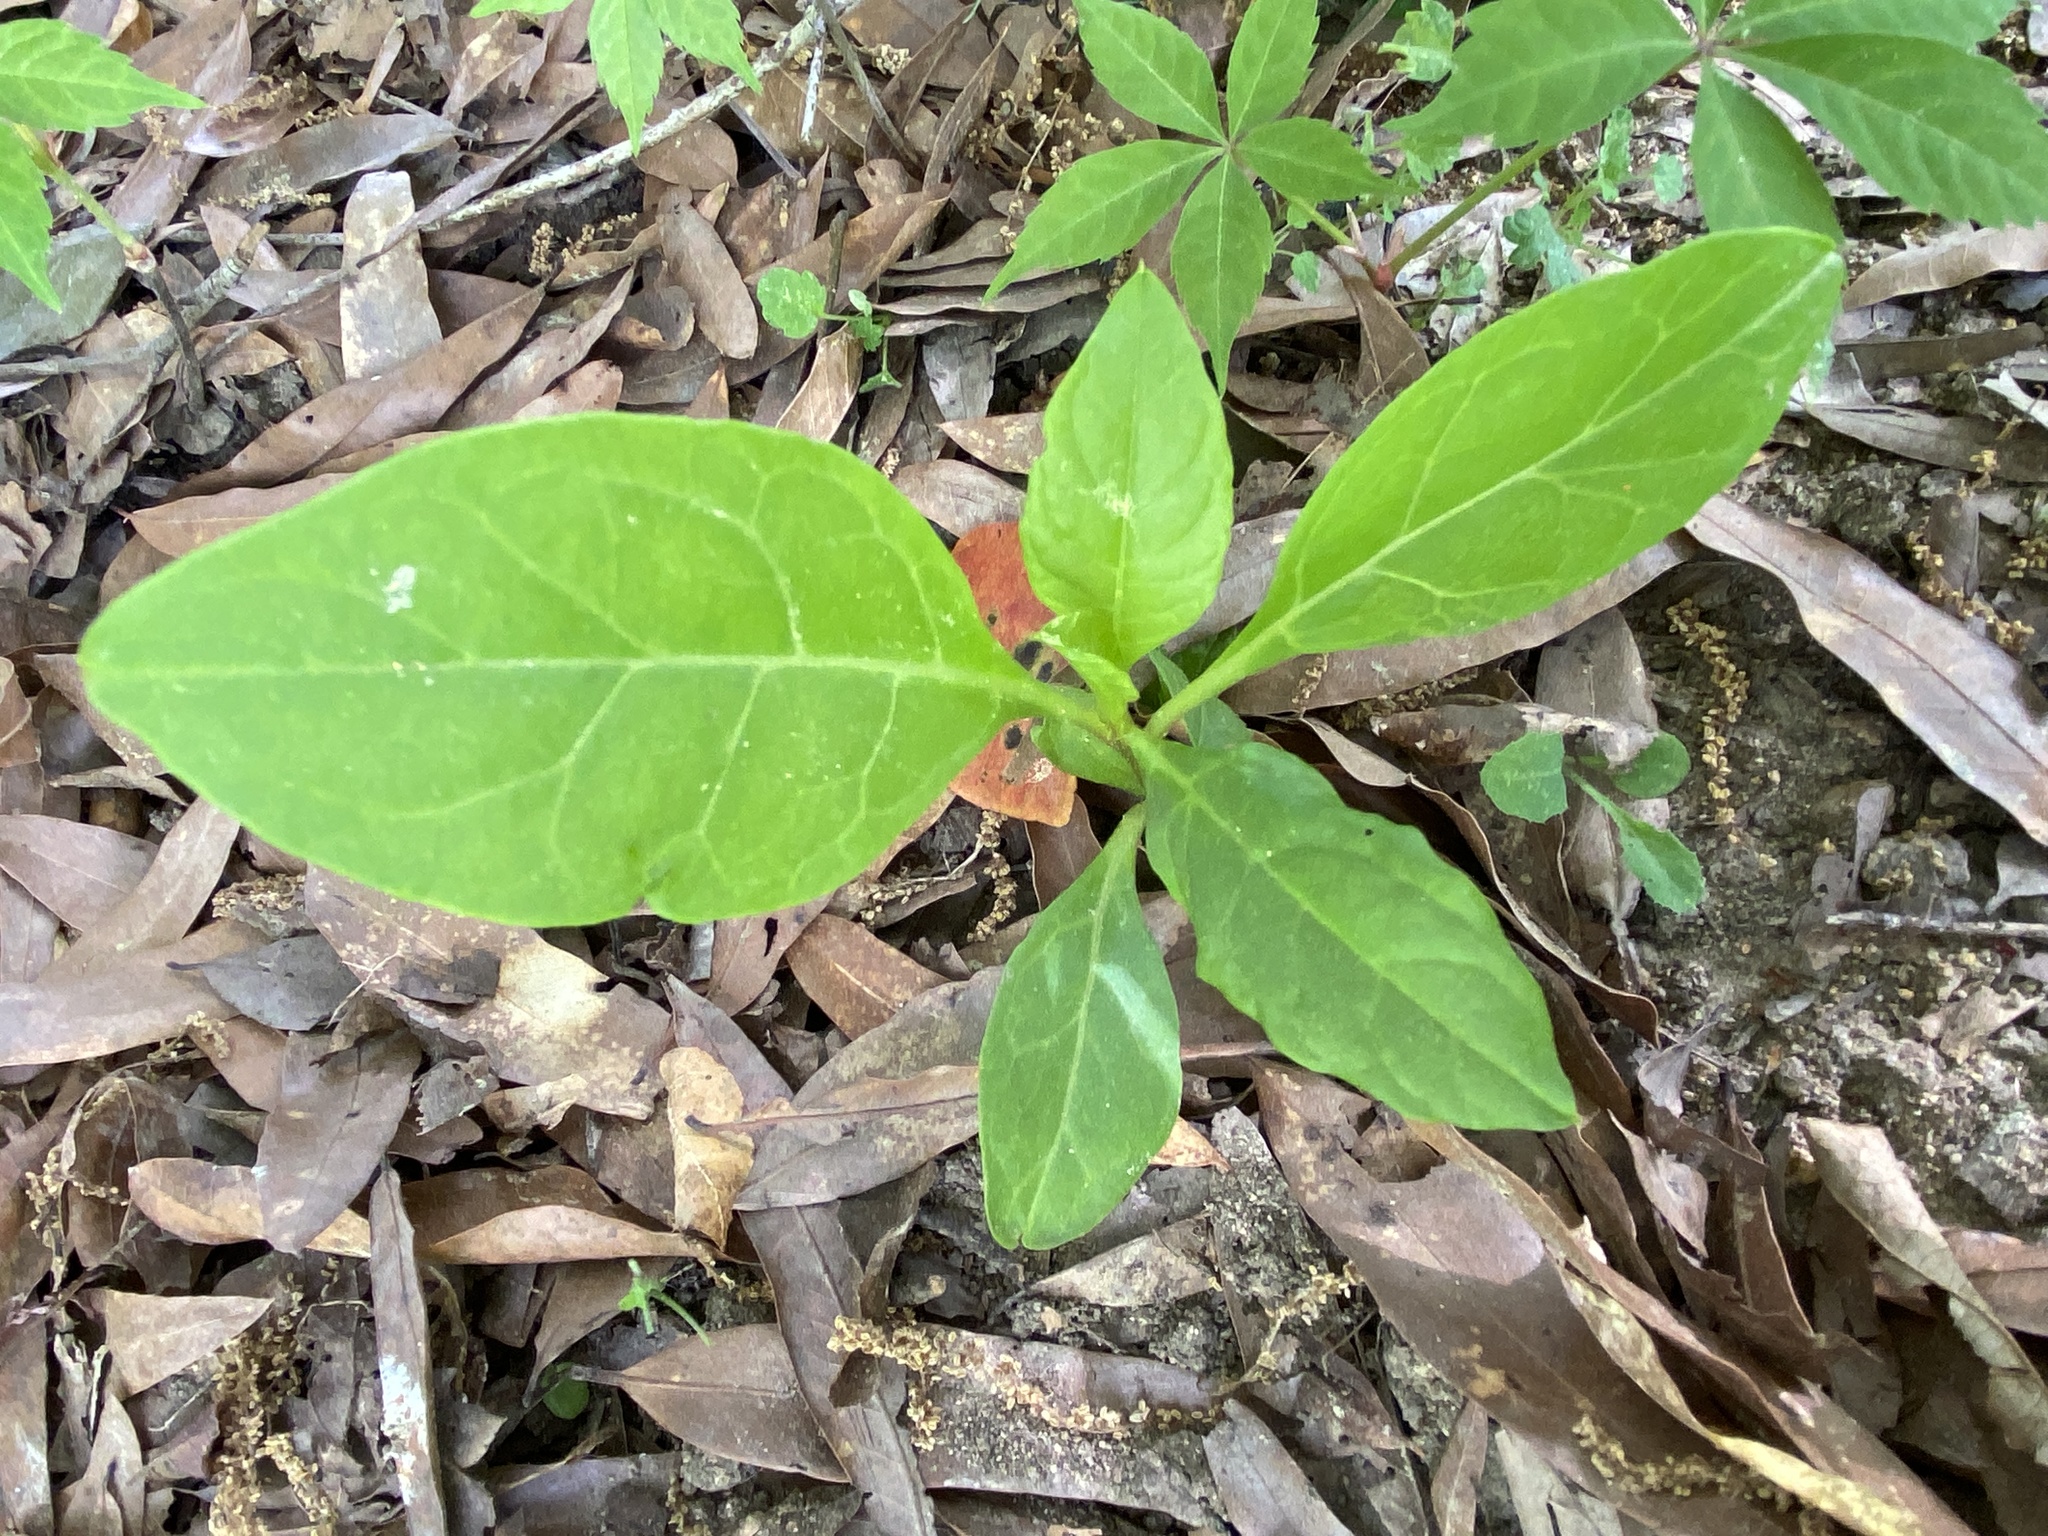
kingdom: Plantae
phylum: Tracheophyta
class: Magnoliopsida
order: Caryophyllales
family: Phytolaccaceae
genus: Phytolacca
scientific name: Phytolacca americana
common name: American pokeweed
